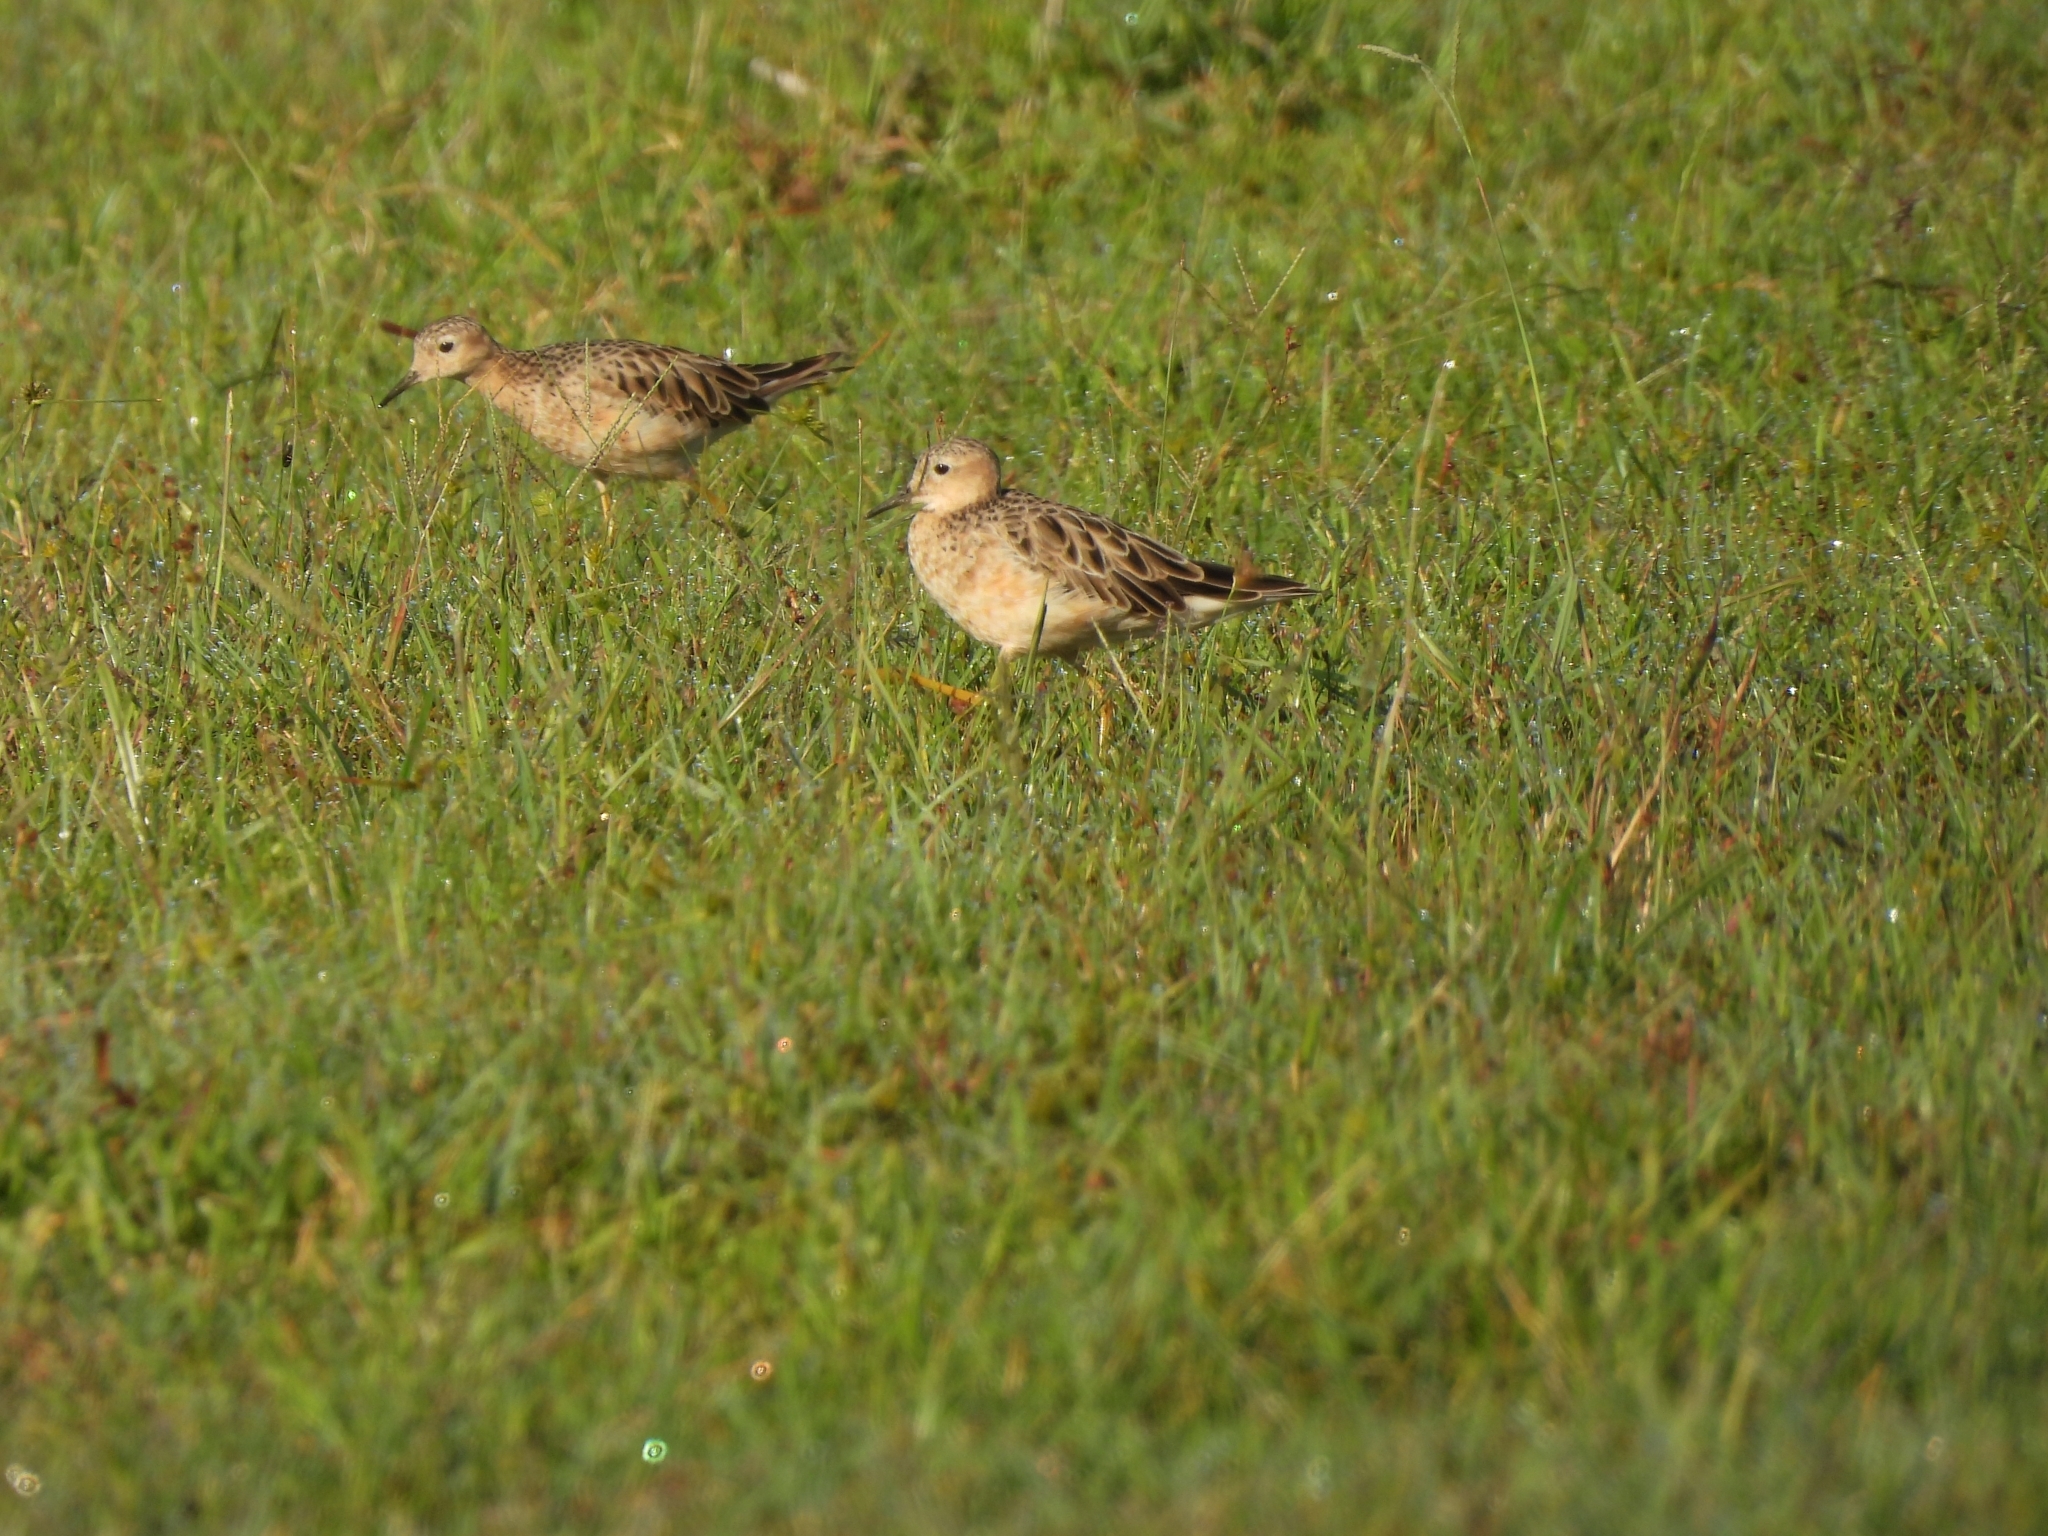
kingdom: Animalia
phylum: Chordata
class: Aves
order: Charadriiformes
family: Scolopacidae
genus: Calidris
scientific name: Calidris subruficollis
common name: Buff-breasted sandpiper
